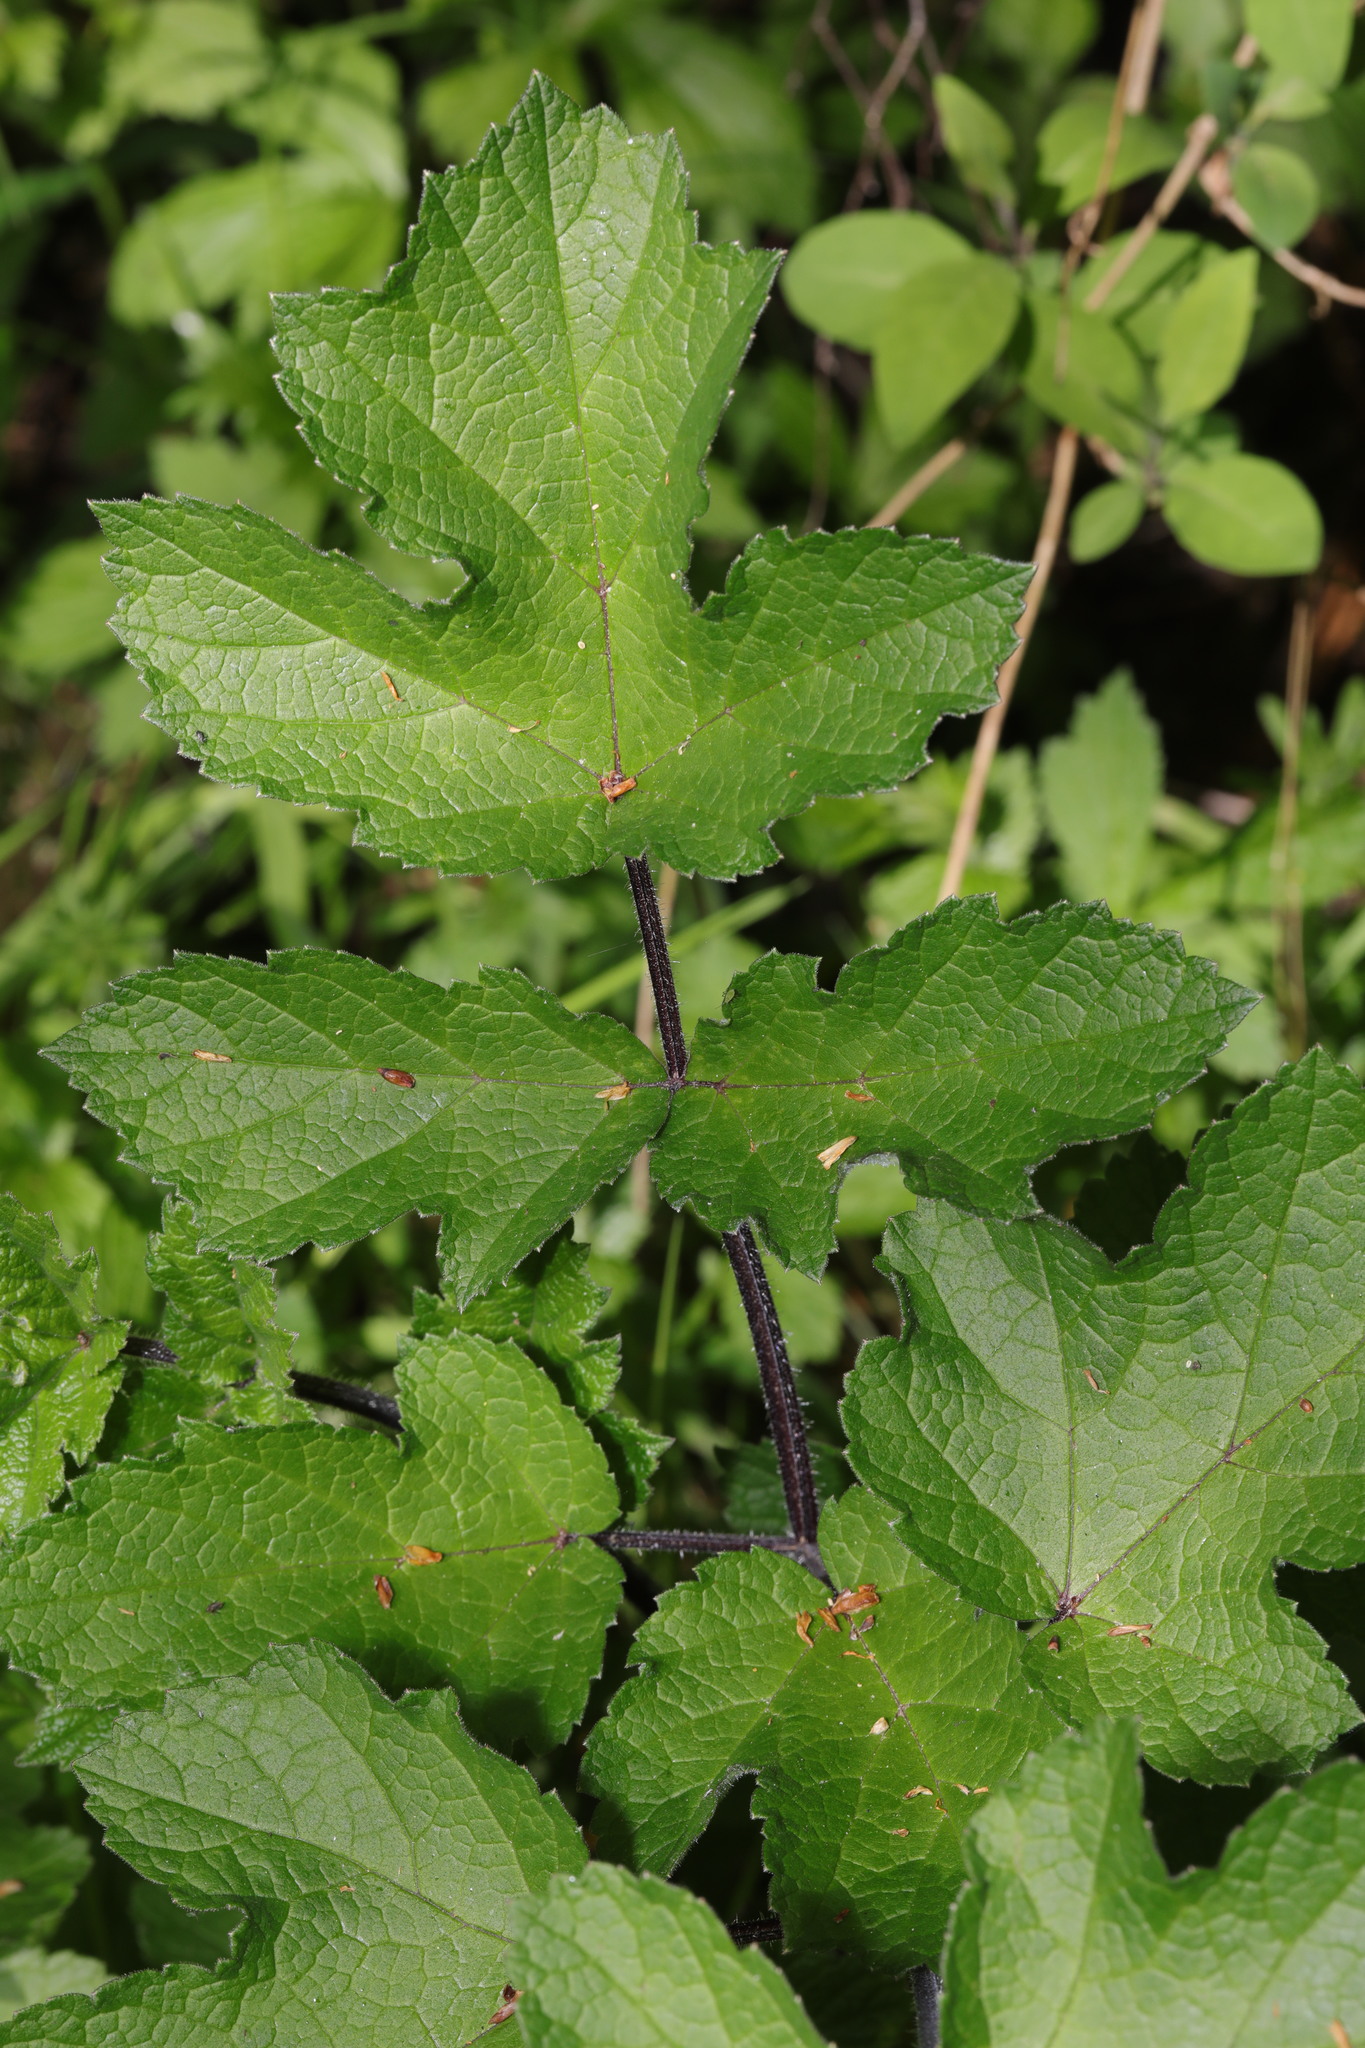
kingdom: Plantae
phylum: Tracheophyta
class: Magnoliopsida
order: Apiales
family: Apiaceae
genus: Heracleum
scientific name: Heracleum sphondylium
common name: Hogweed
